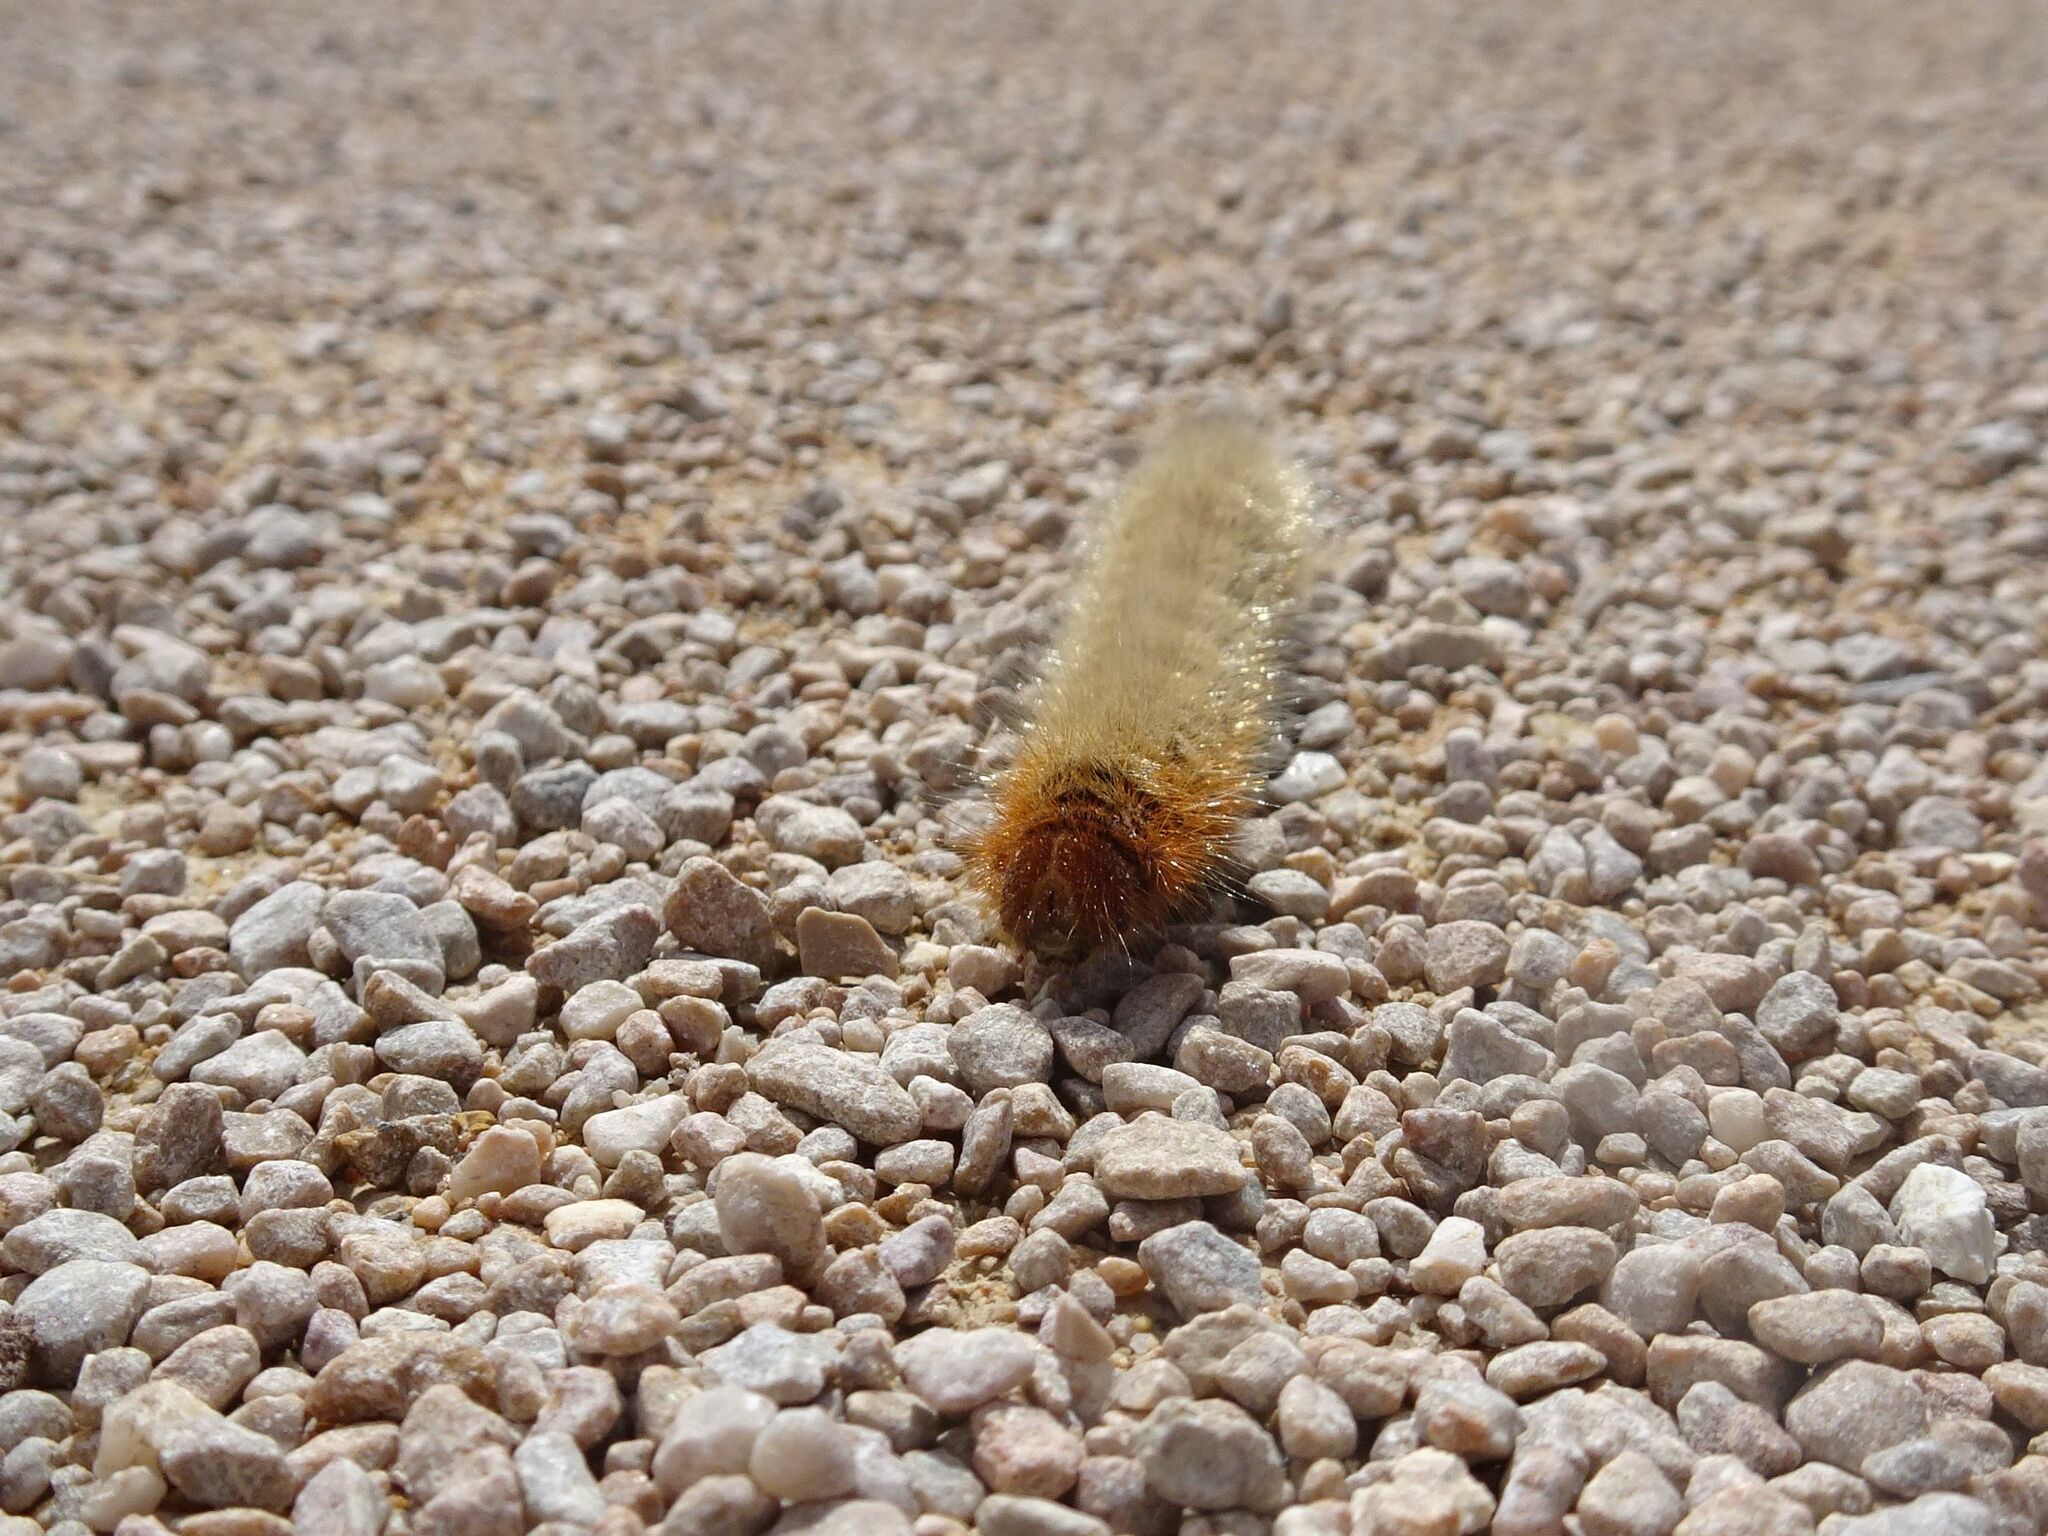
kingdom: Animalia
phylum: Arthropoda
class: Insecta
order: Lepidoptera
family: Lasiocampidae
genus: Lasiocampa
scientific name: Lasiocampa quercus
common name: Oak eggar
